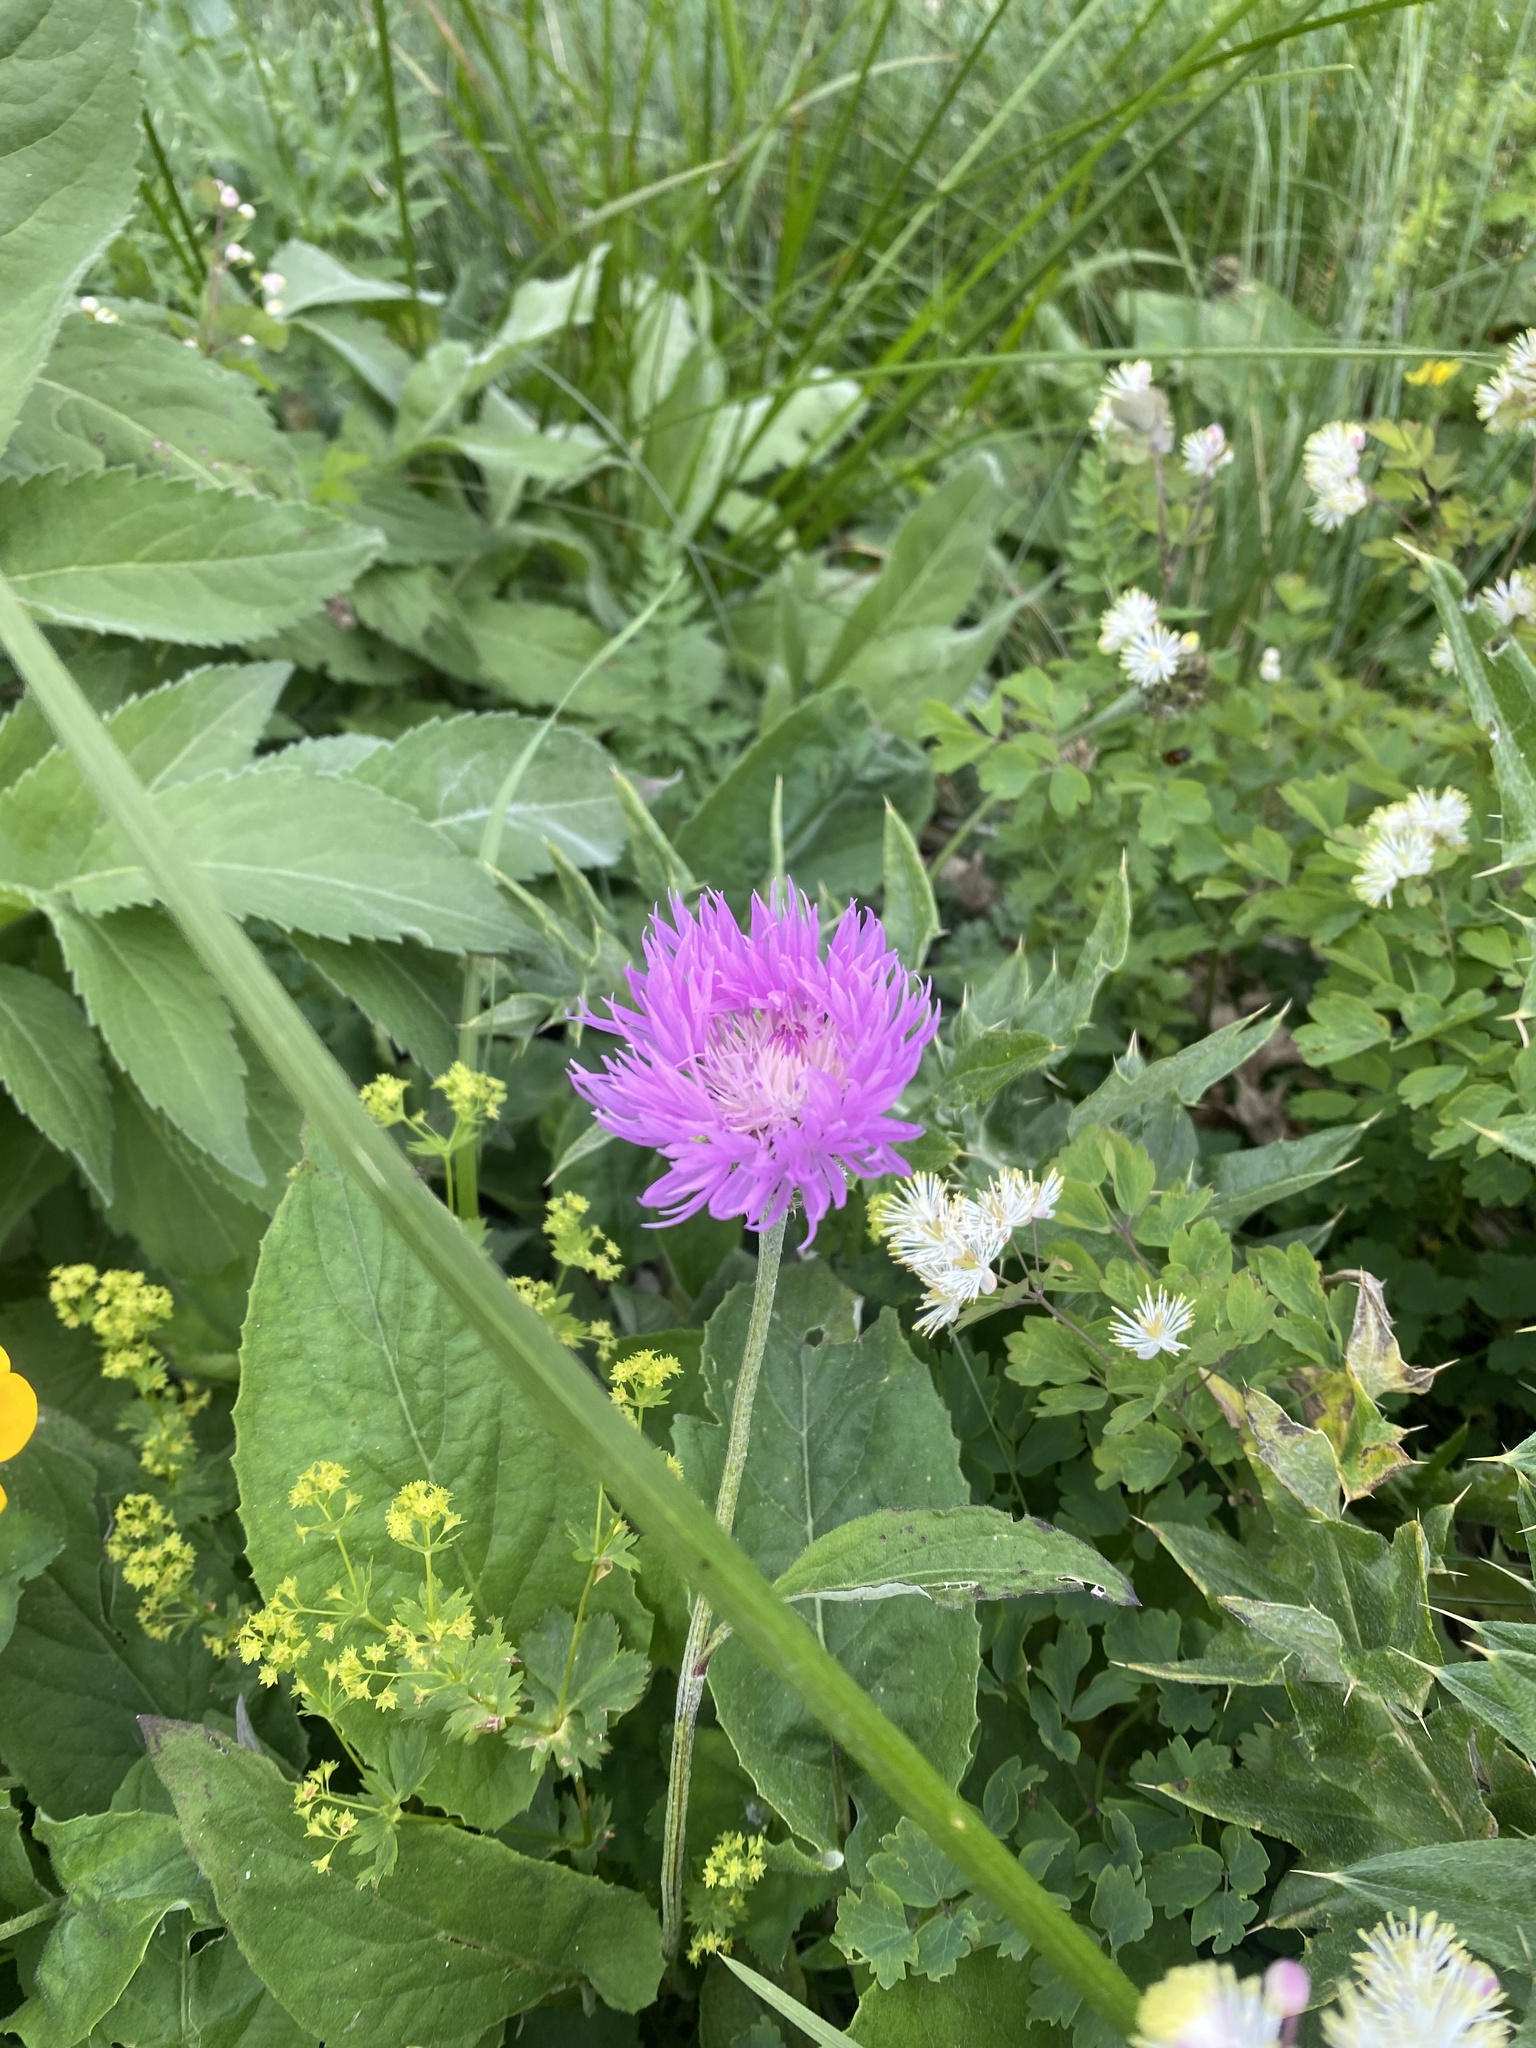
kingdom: Plantae
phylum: Tracheophyta
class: Magnoliopsida
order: Asterales
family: Asteraceae
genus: Psephellus
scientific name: Psephellus dealbatus
